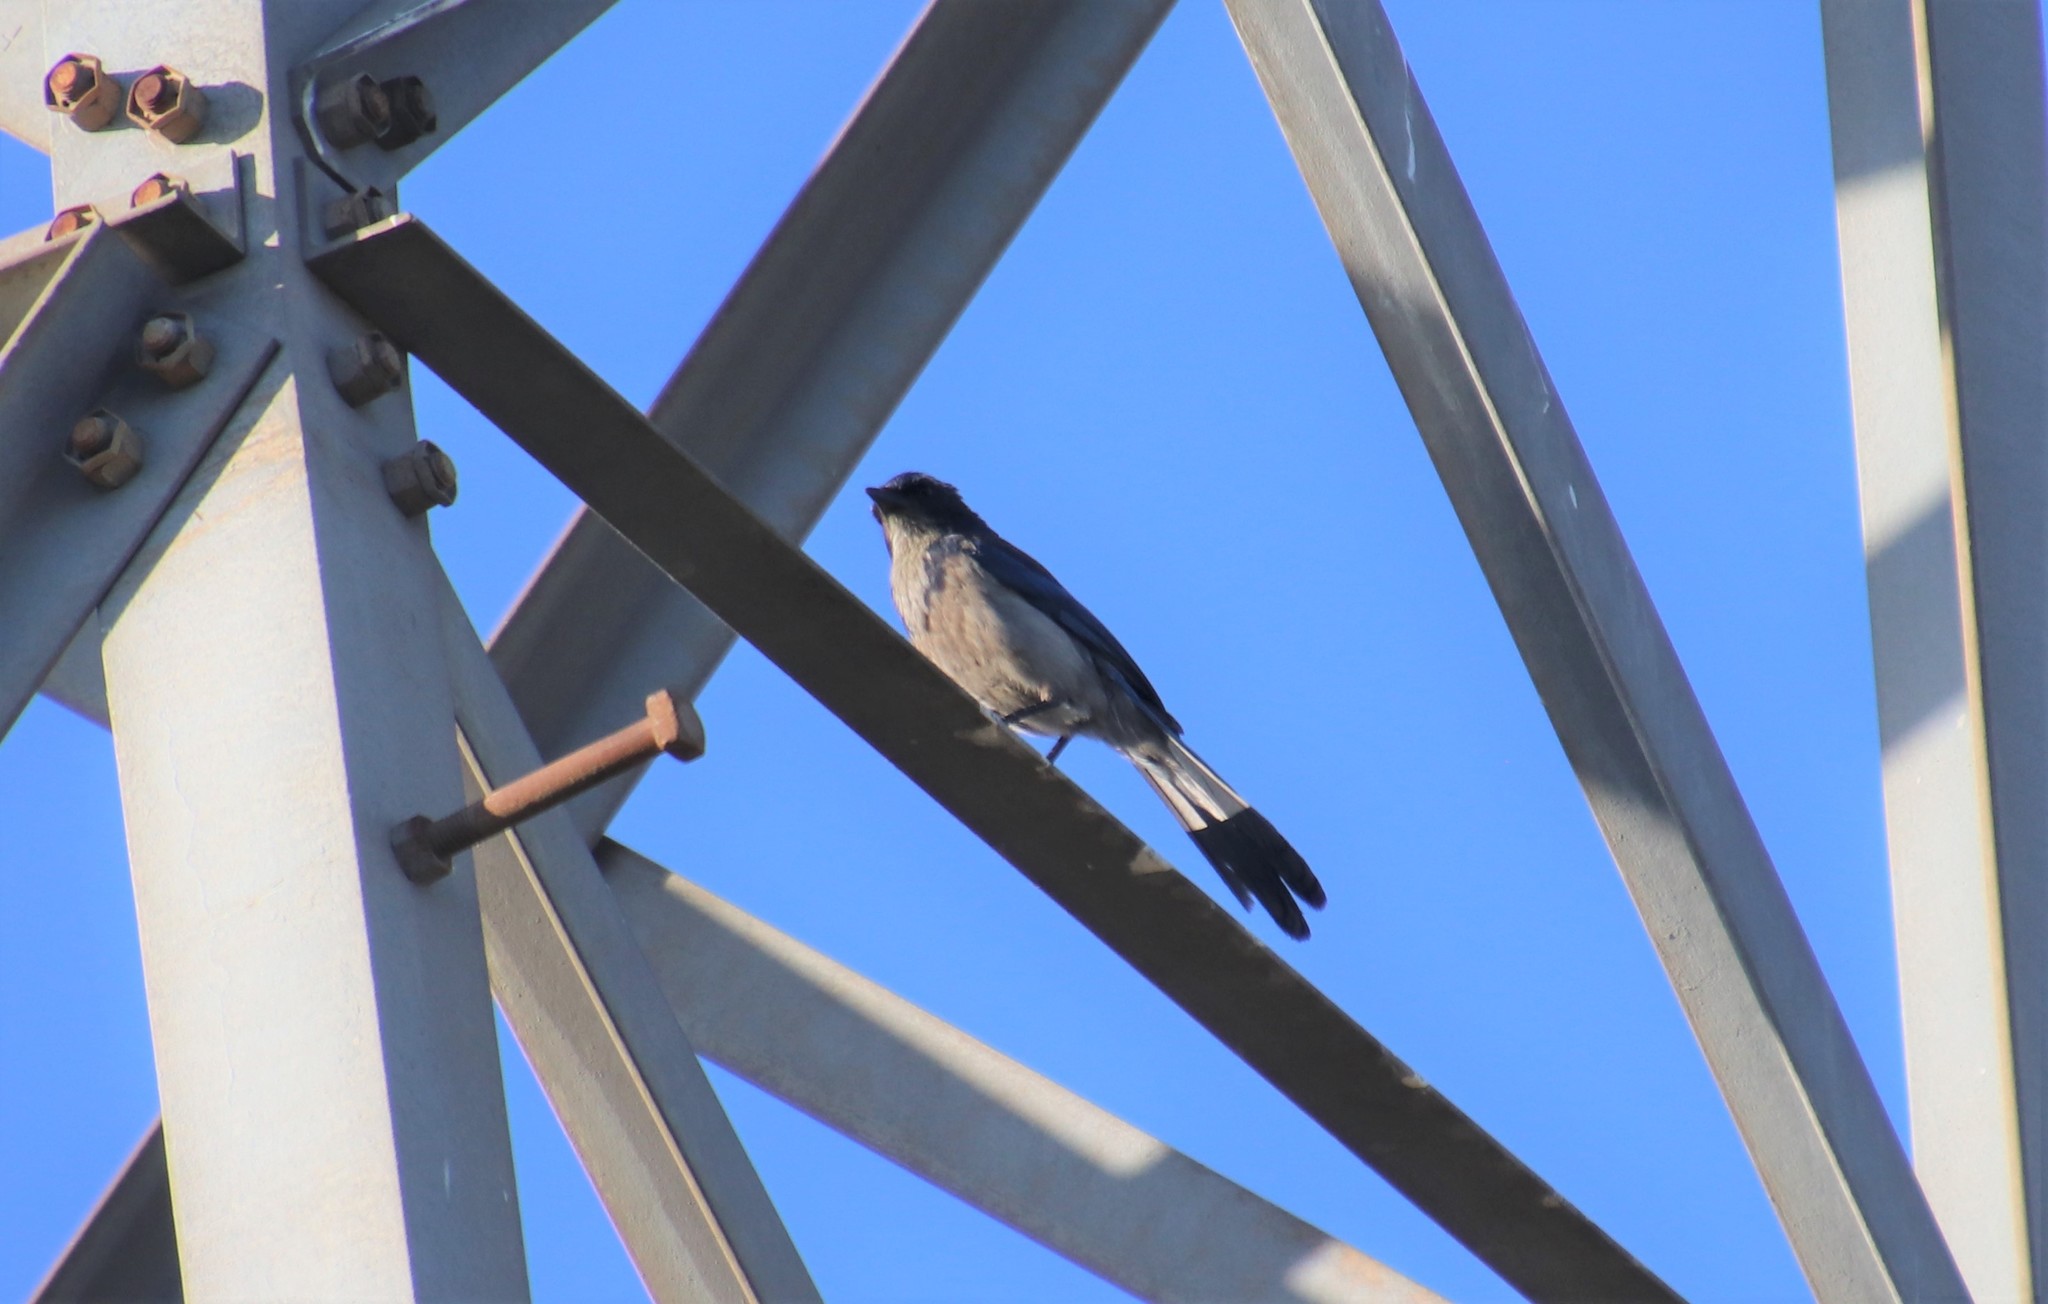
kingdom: Animalia
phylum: Chordata
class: Aves
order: Passeriformes
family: Corvidae
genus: Aphelocoma
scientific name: Aphelocoma californica
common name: California scrub-jay
